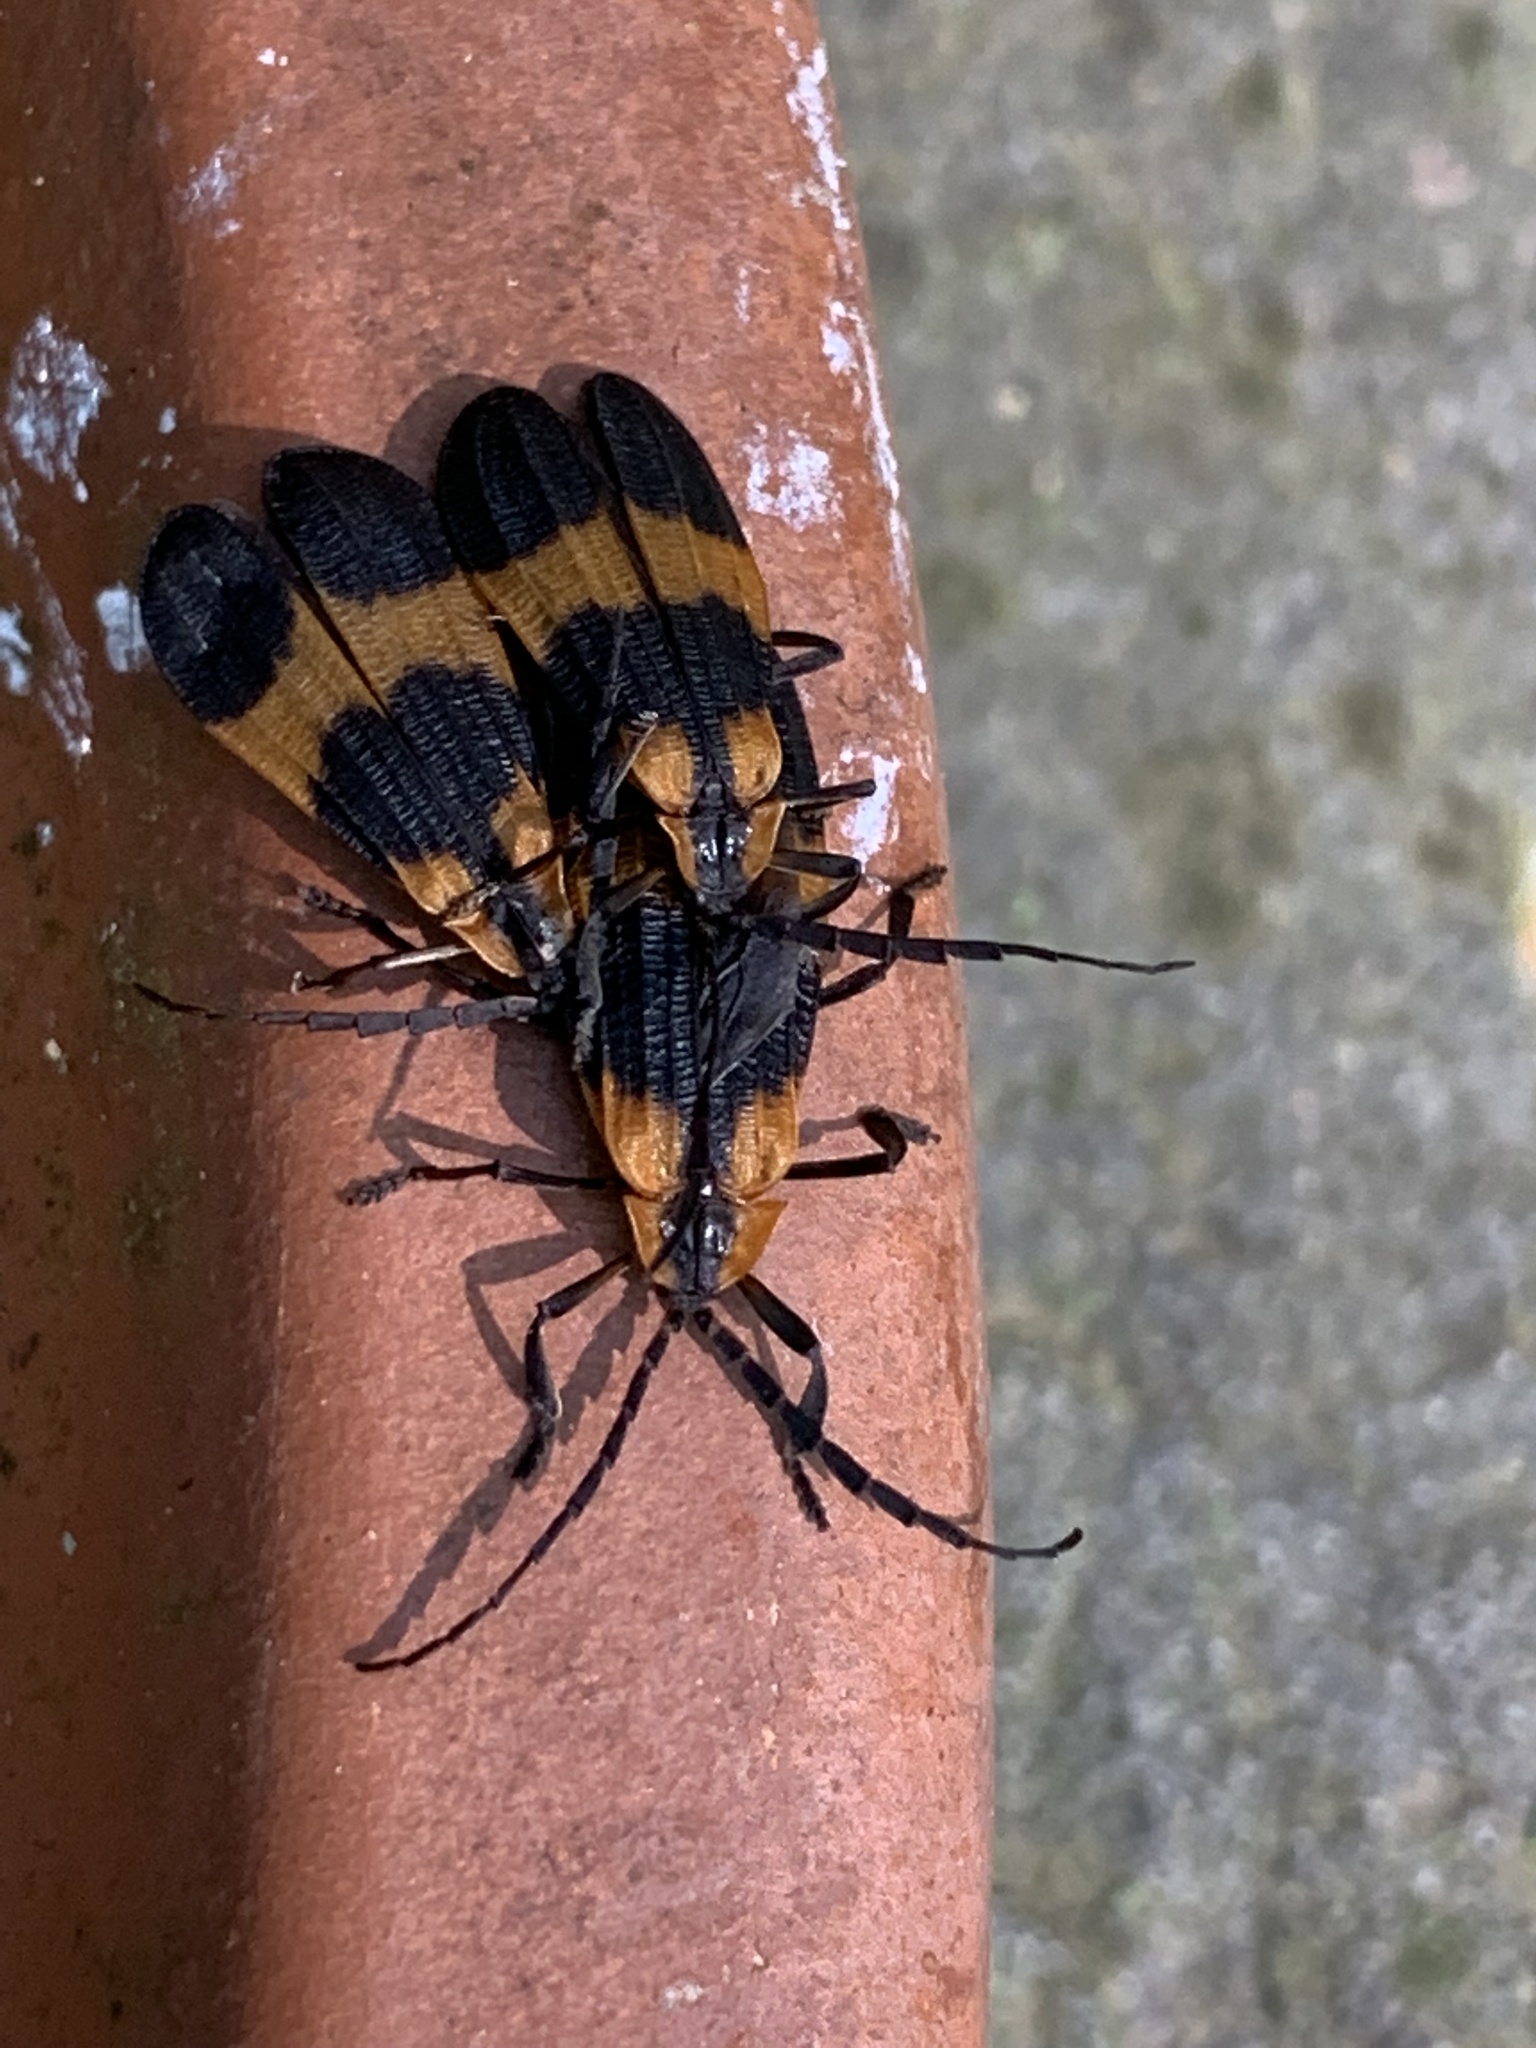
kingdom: Animalia
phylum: Arthropoda
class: Insecta
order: Coleoptera
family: Lycidae
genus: Calopteron
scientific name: Calopteron reticulatum
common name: Banded net-winged beetle
